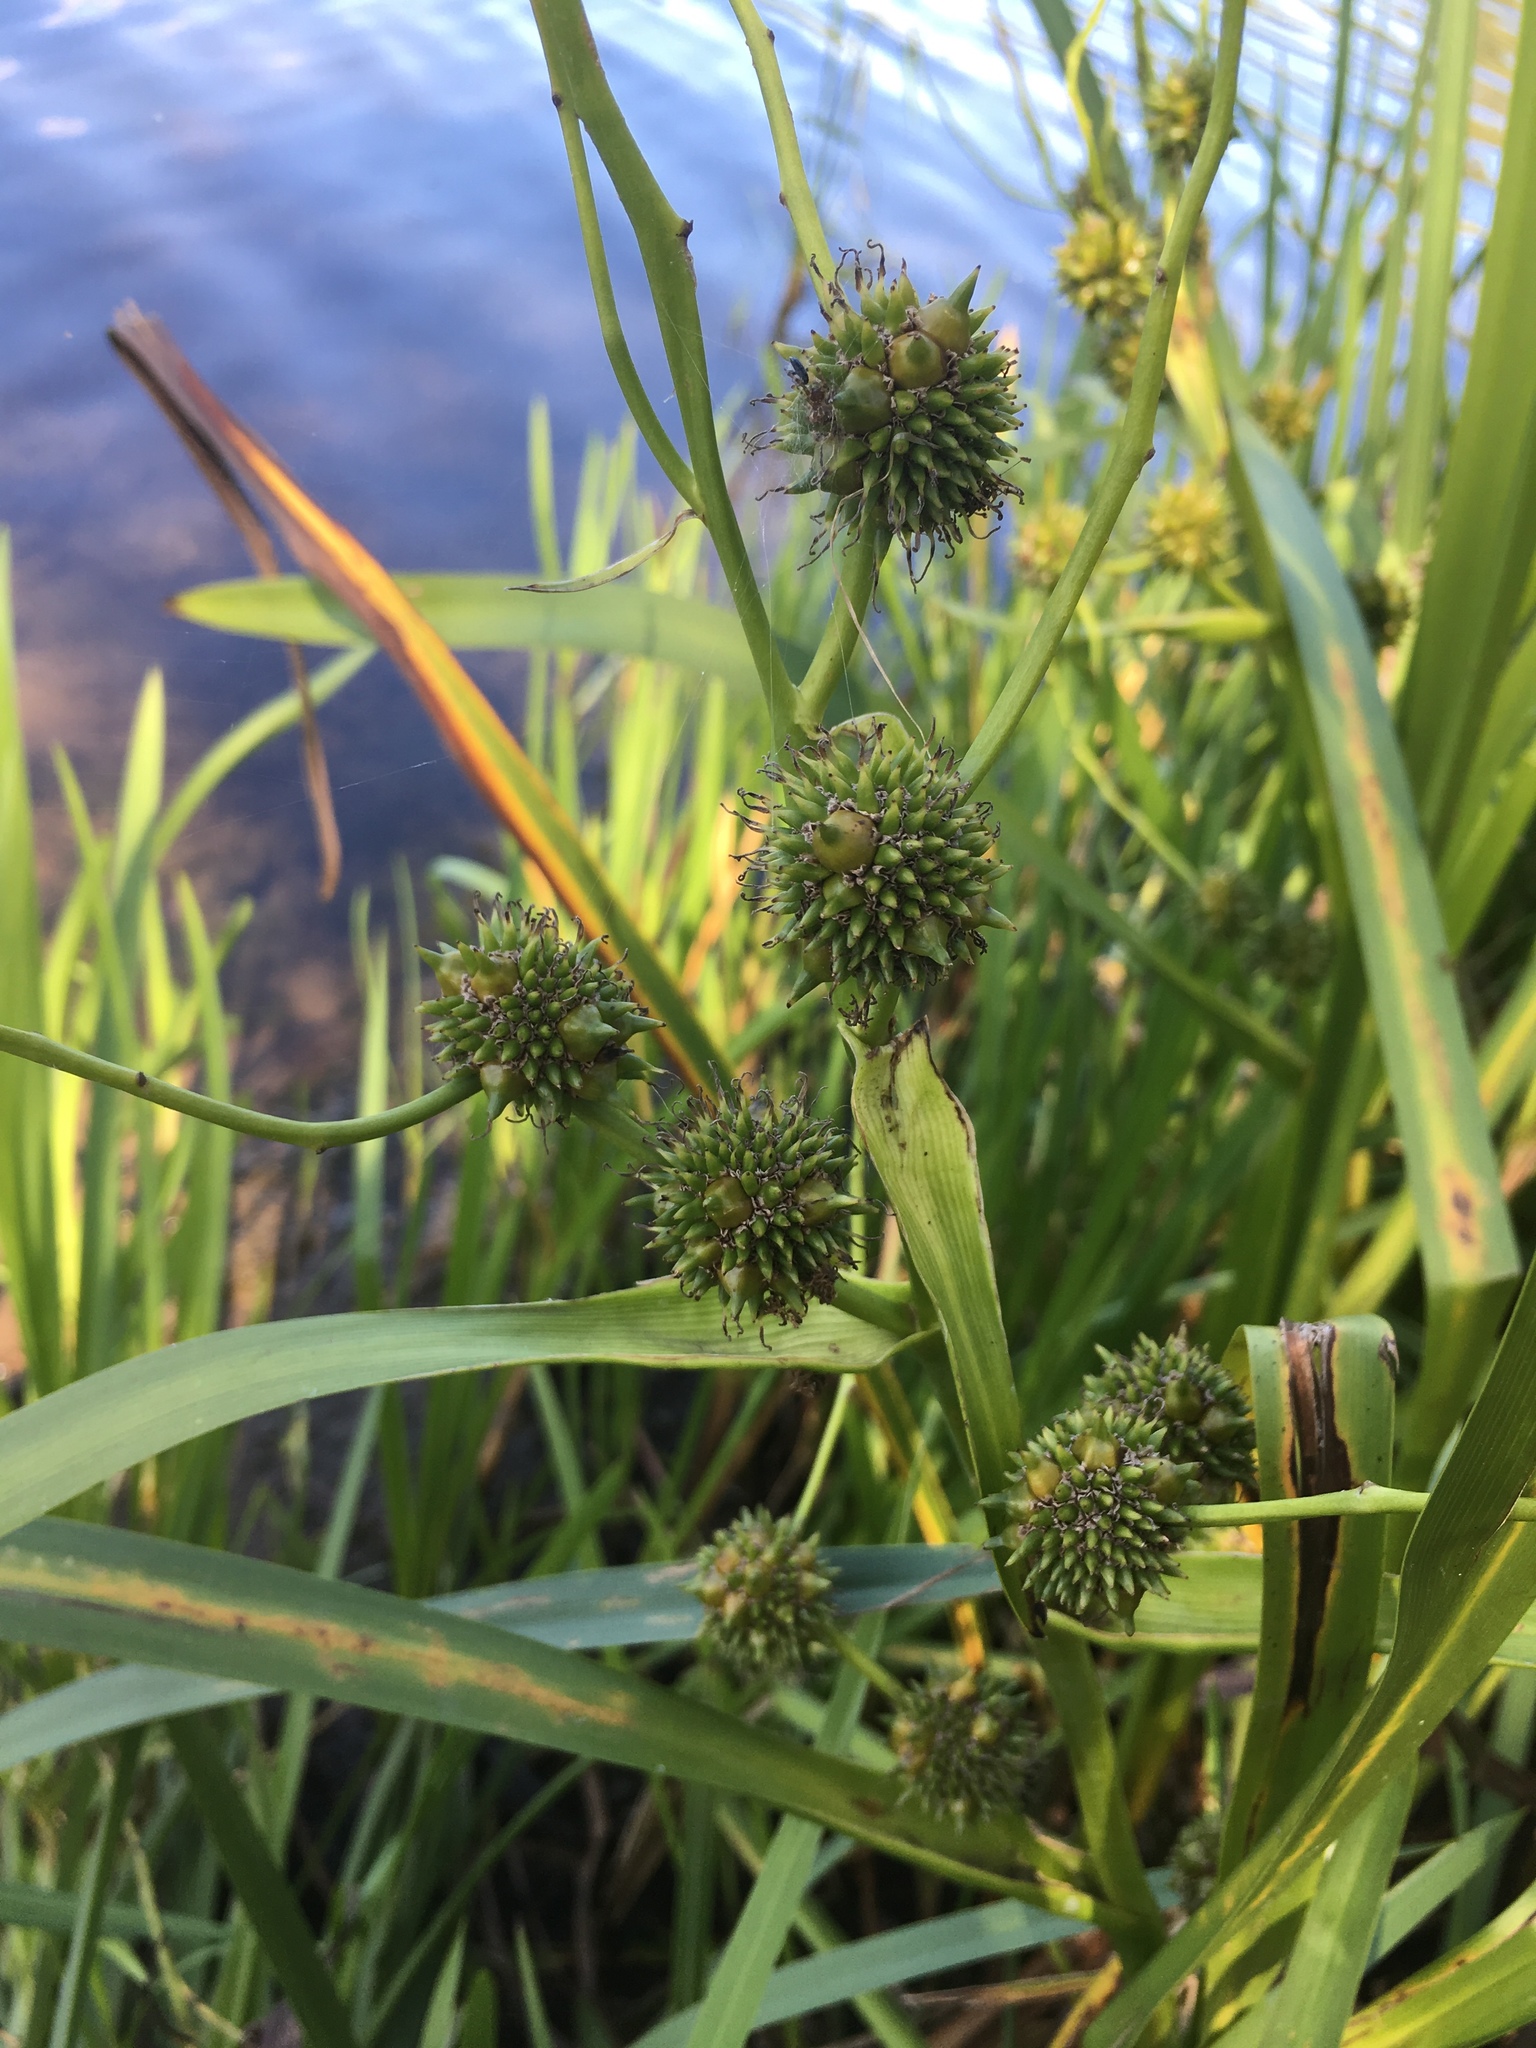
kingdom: Plantae
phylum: Tracheophyta
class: Liliopsida
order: Poales
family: Typhaceae
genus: Sparganium
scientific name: Sparganium erectum
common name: Branched bur-reed
